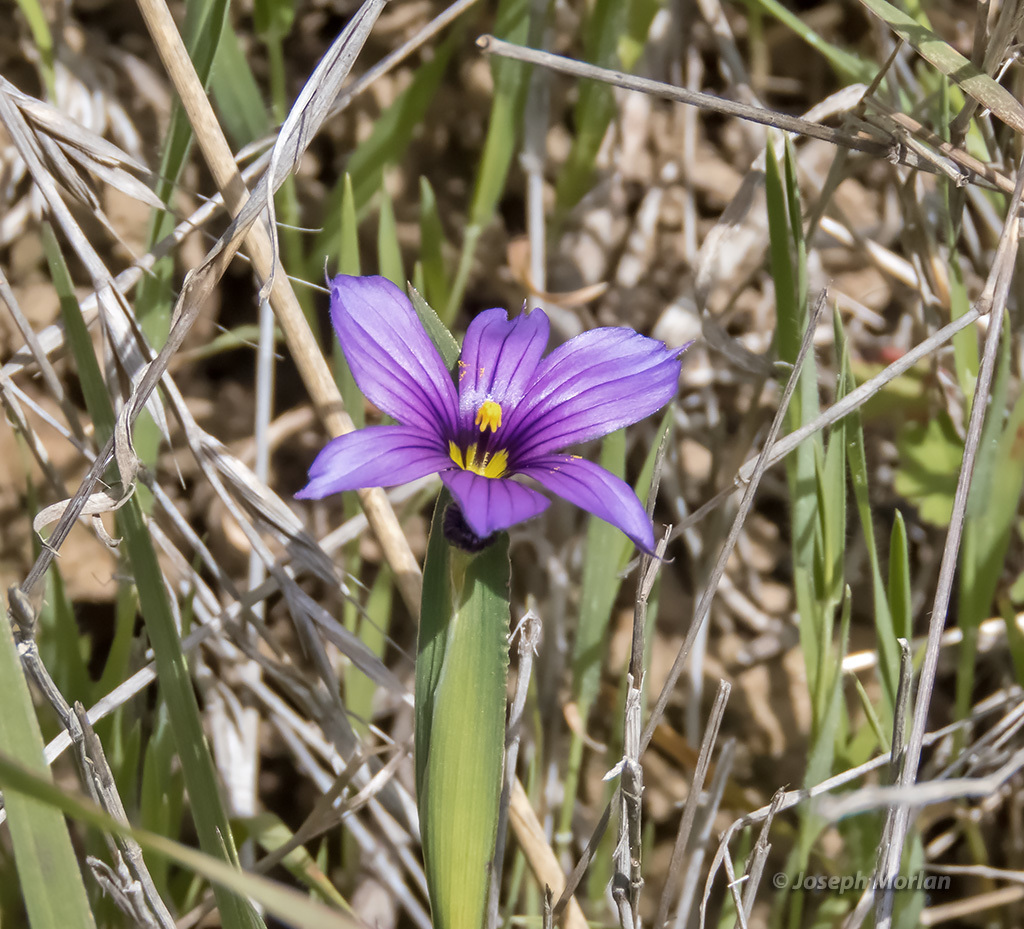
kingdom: Plantae
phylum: Tracheophyta
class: Liliopsida
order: Asparagales
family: Iridaceae
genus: Sisyrinchium
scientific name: Sisyrinchium bellum
